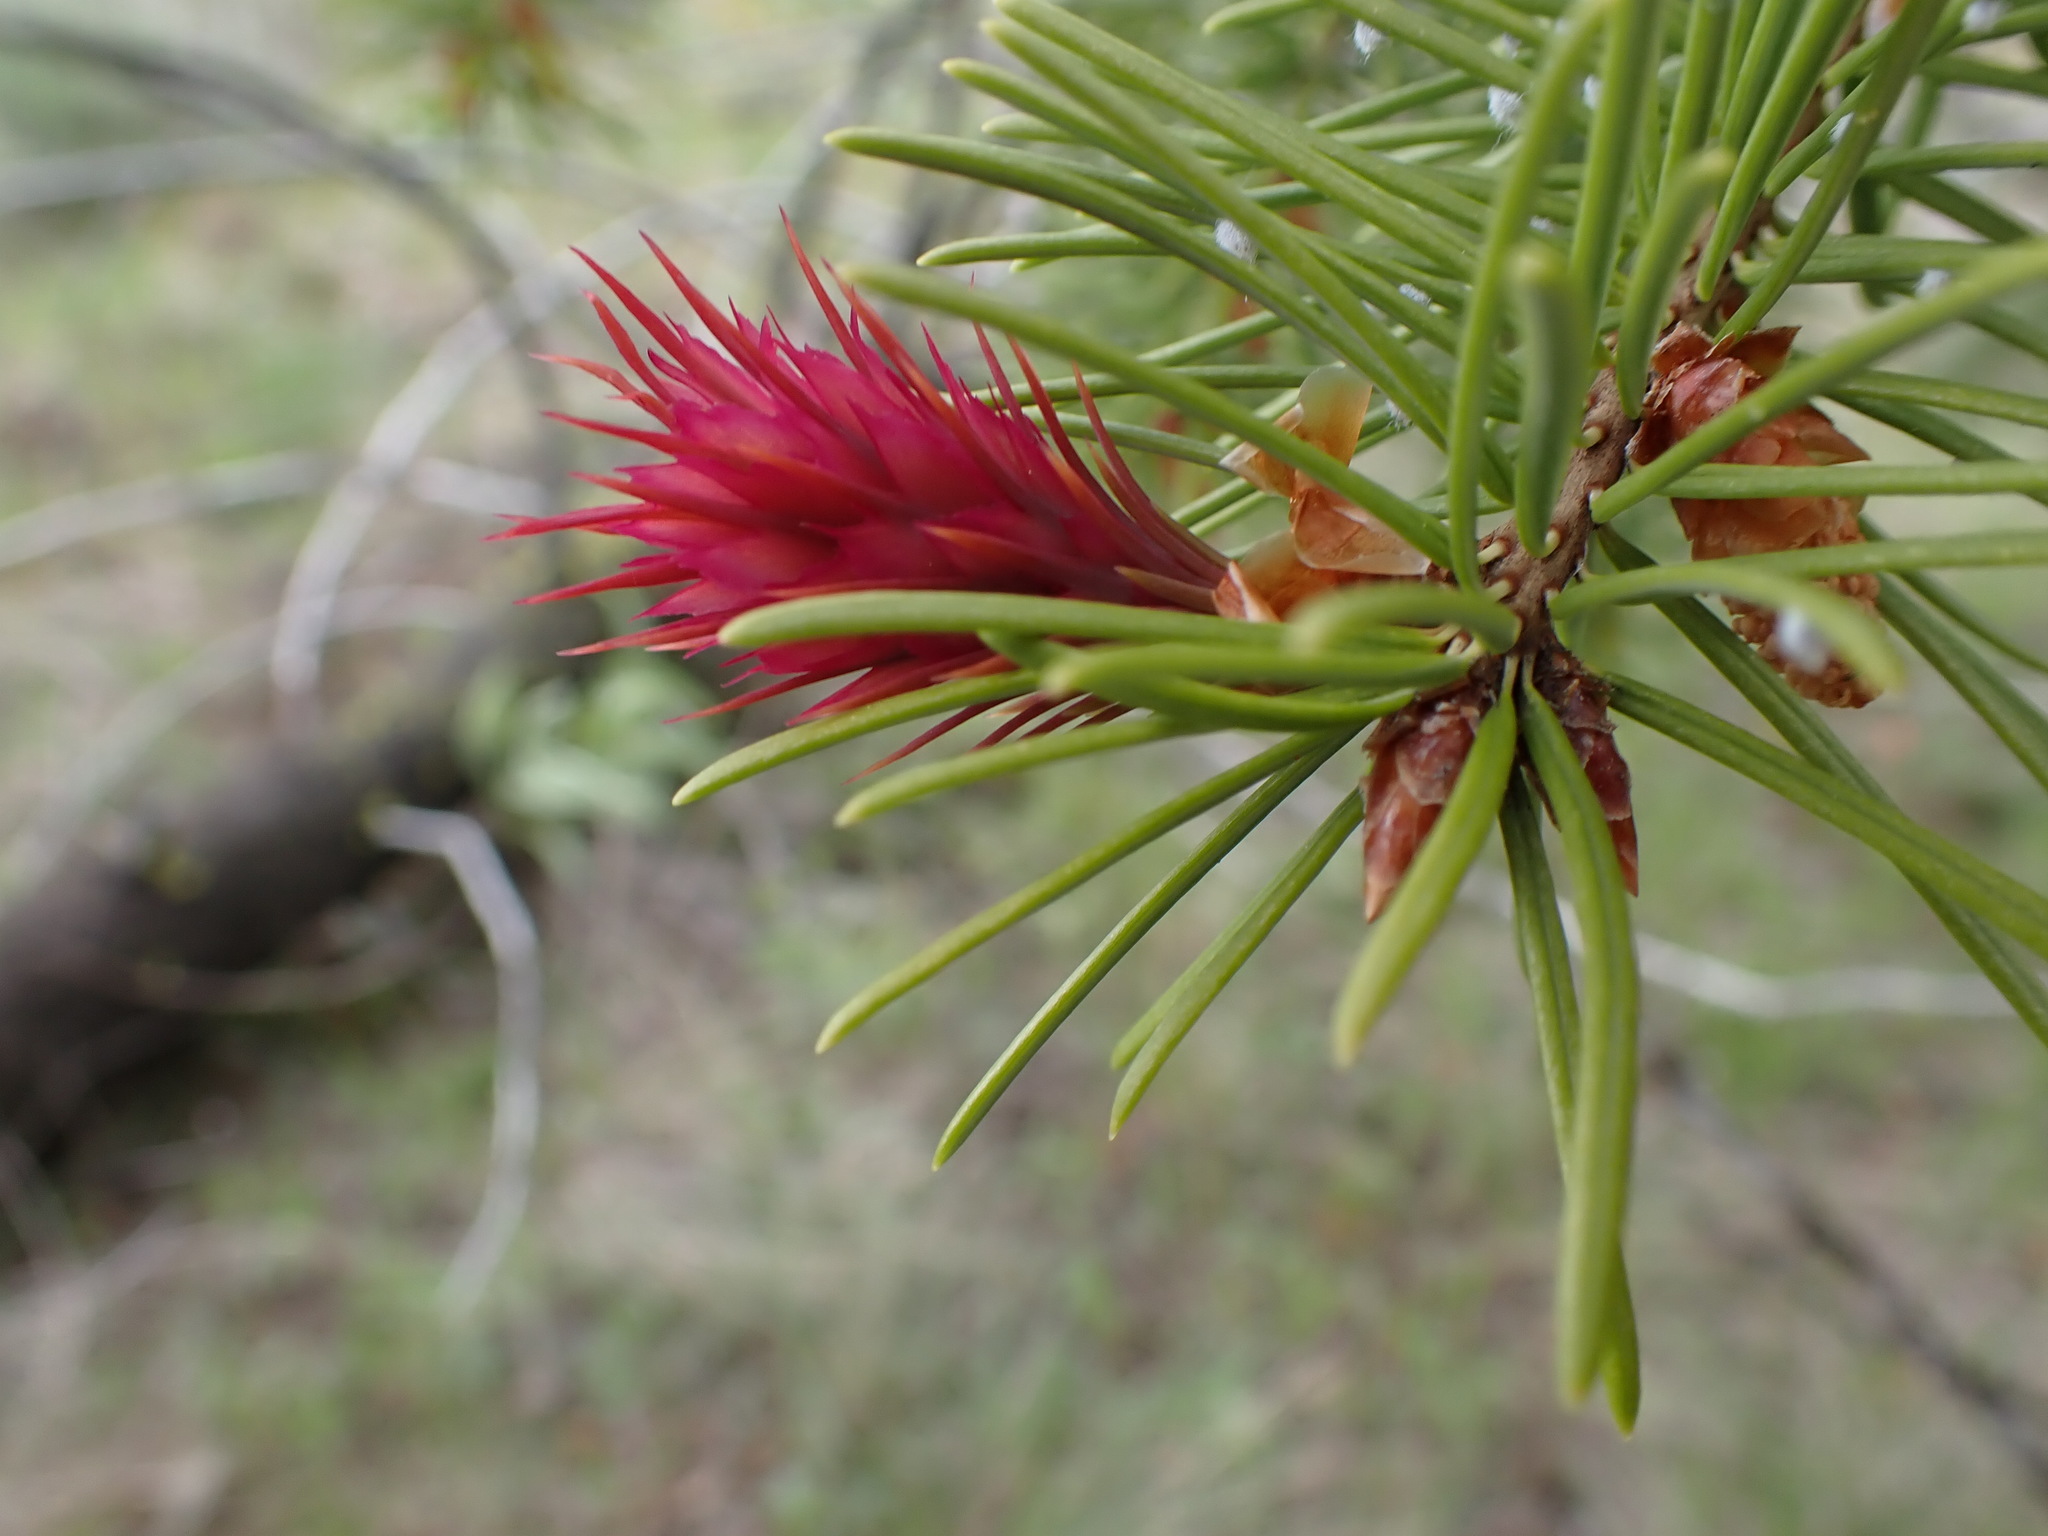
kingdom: Plantae
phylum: Tracheophyta
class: Pinopsida
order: Pinales
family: Pinaceae
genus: Pseudotsuga
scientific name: Pseudotsuga menziesii
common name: Douglas fir
